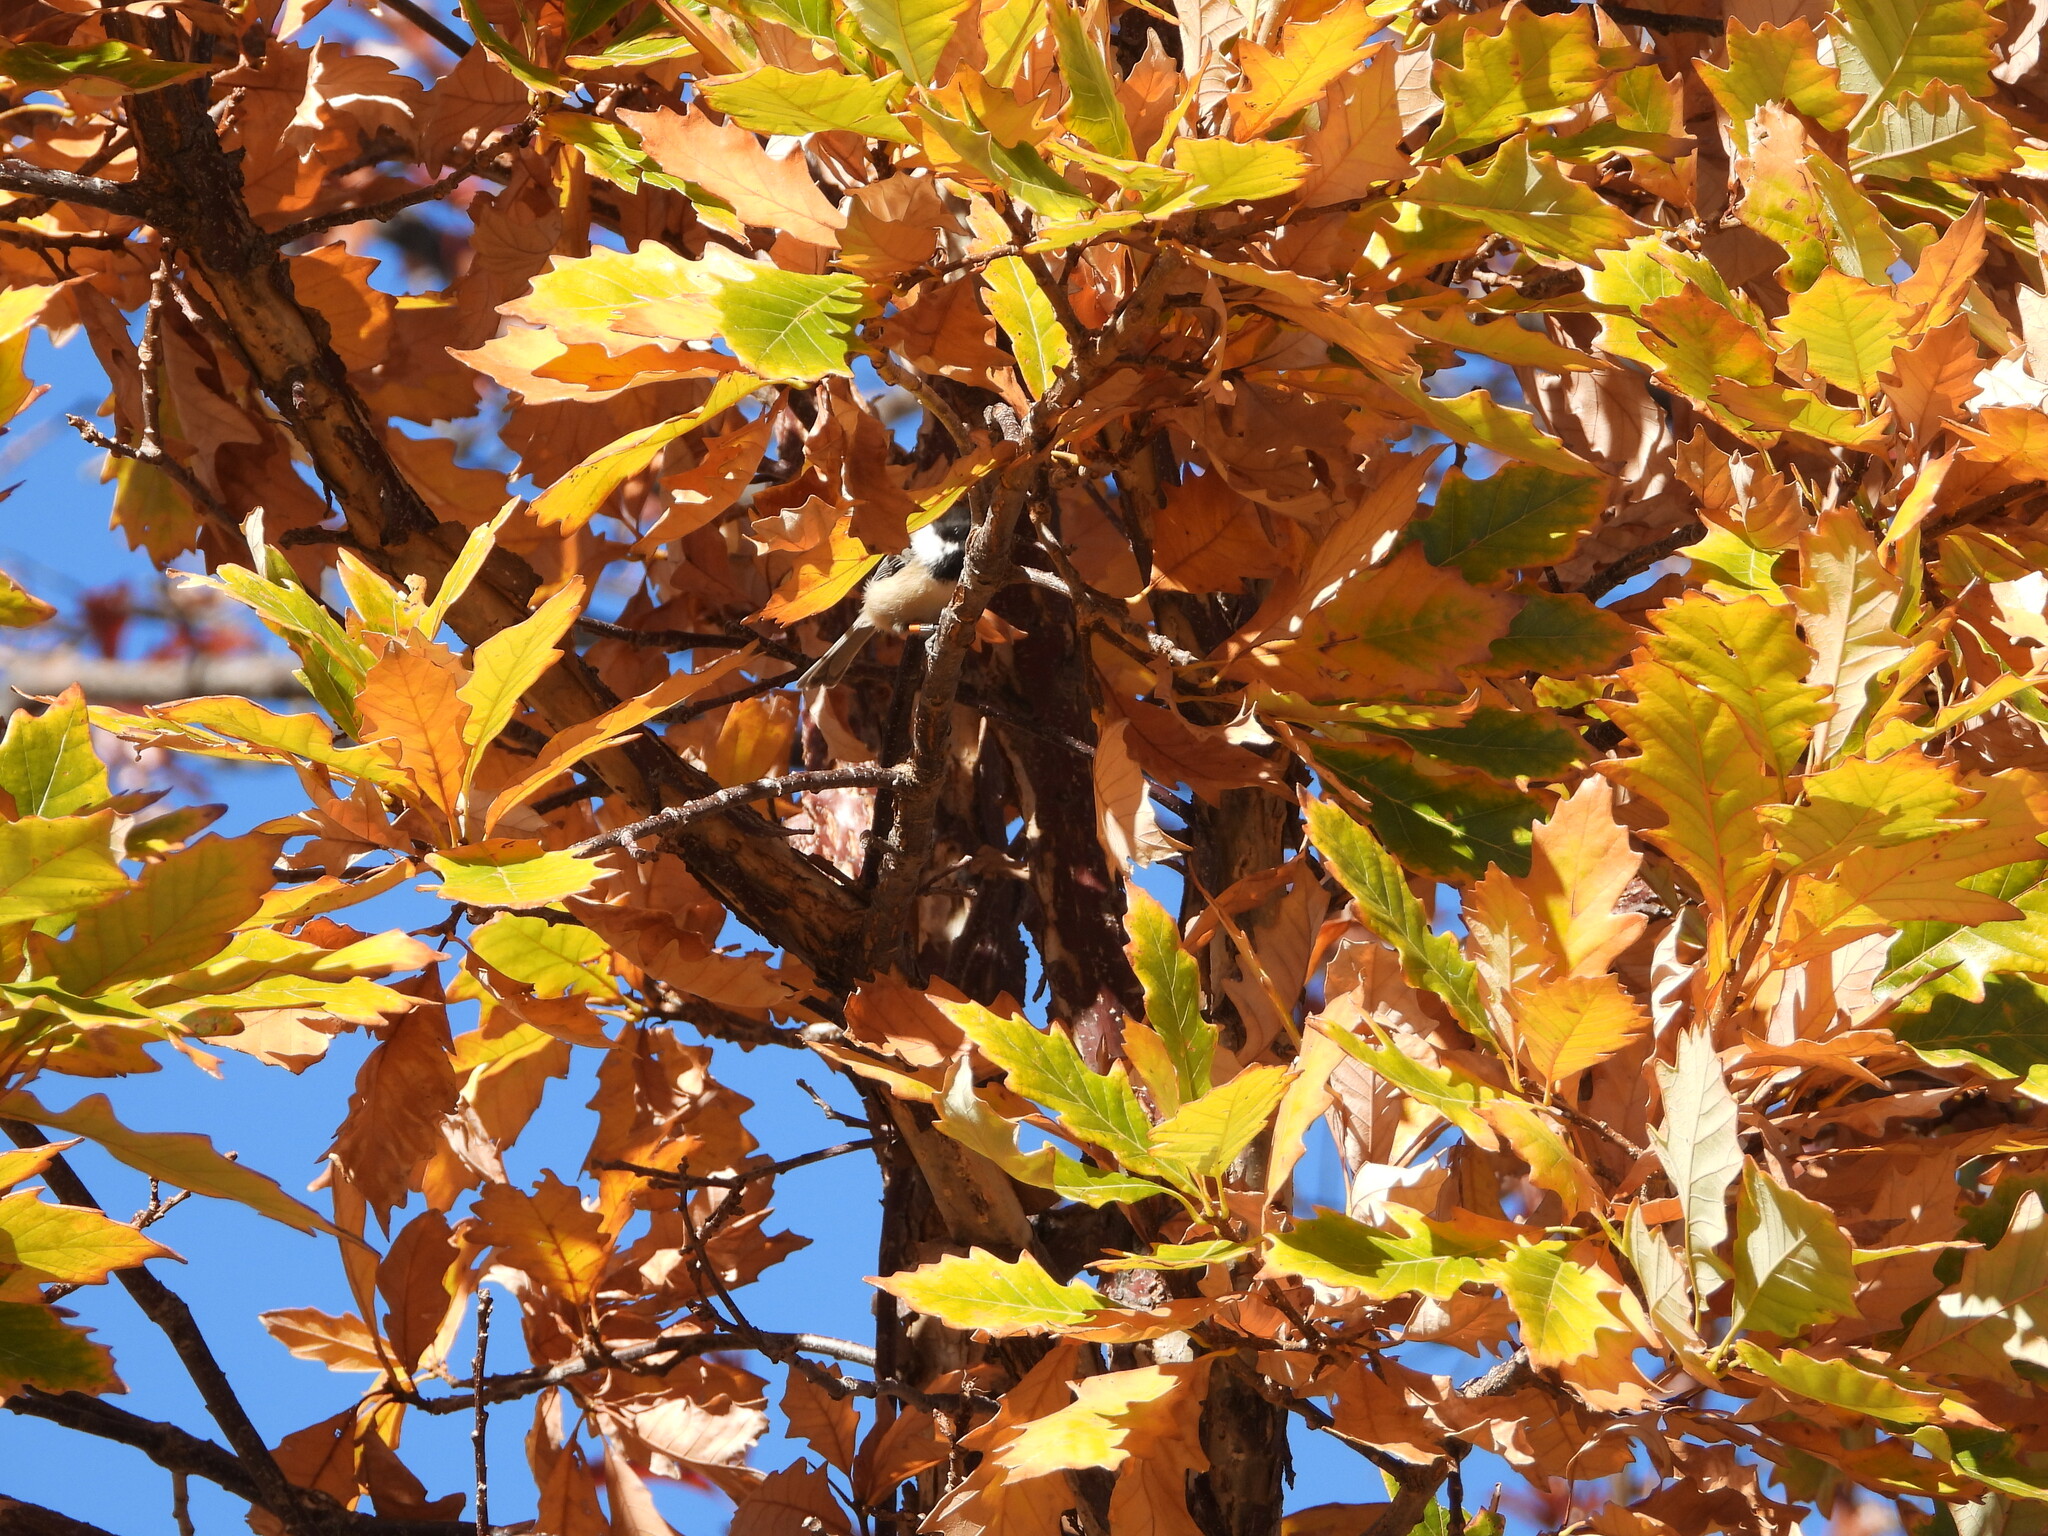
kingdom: Animalia
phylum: Chordata
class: Aves
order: Passeriformes
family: Paridae
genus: Poecile
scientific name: Poecile atricapillus
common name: Black-capped chickadee
